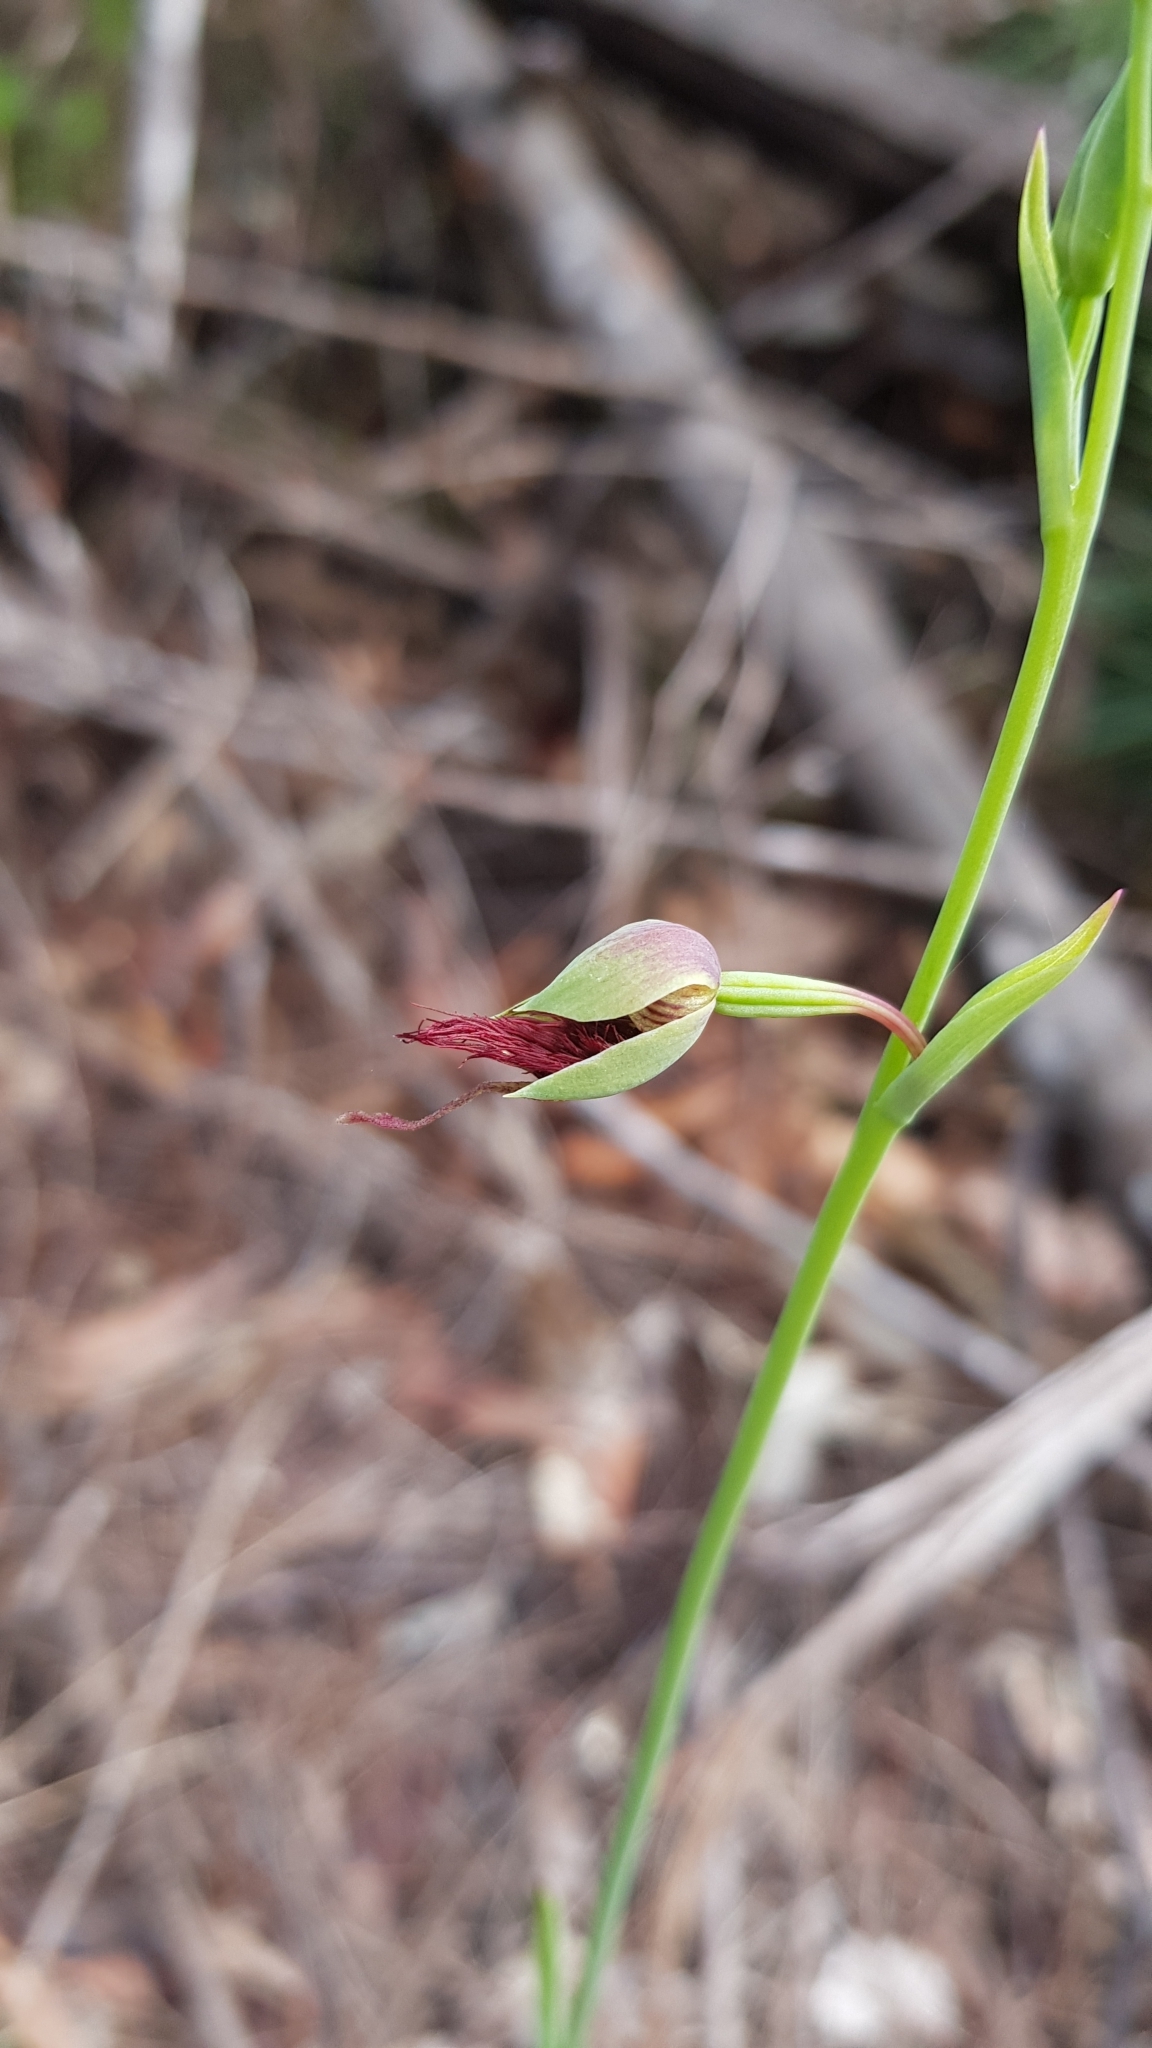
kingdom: Plantae
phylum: Tracheophyta
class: Liliopsida
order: Asparagales
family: Orchidaceae
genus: Calochilus
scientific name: Calochilus paludosus
